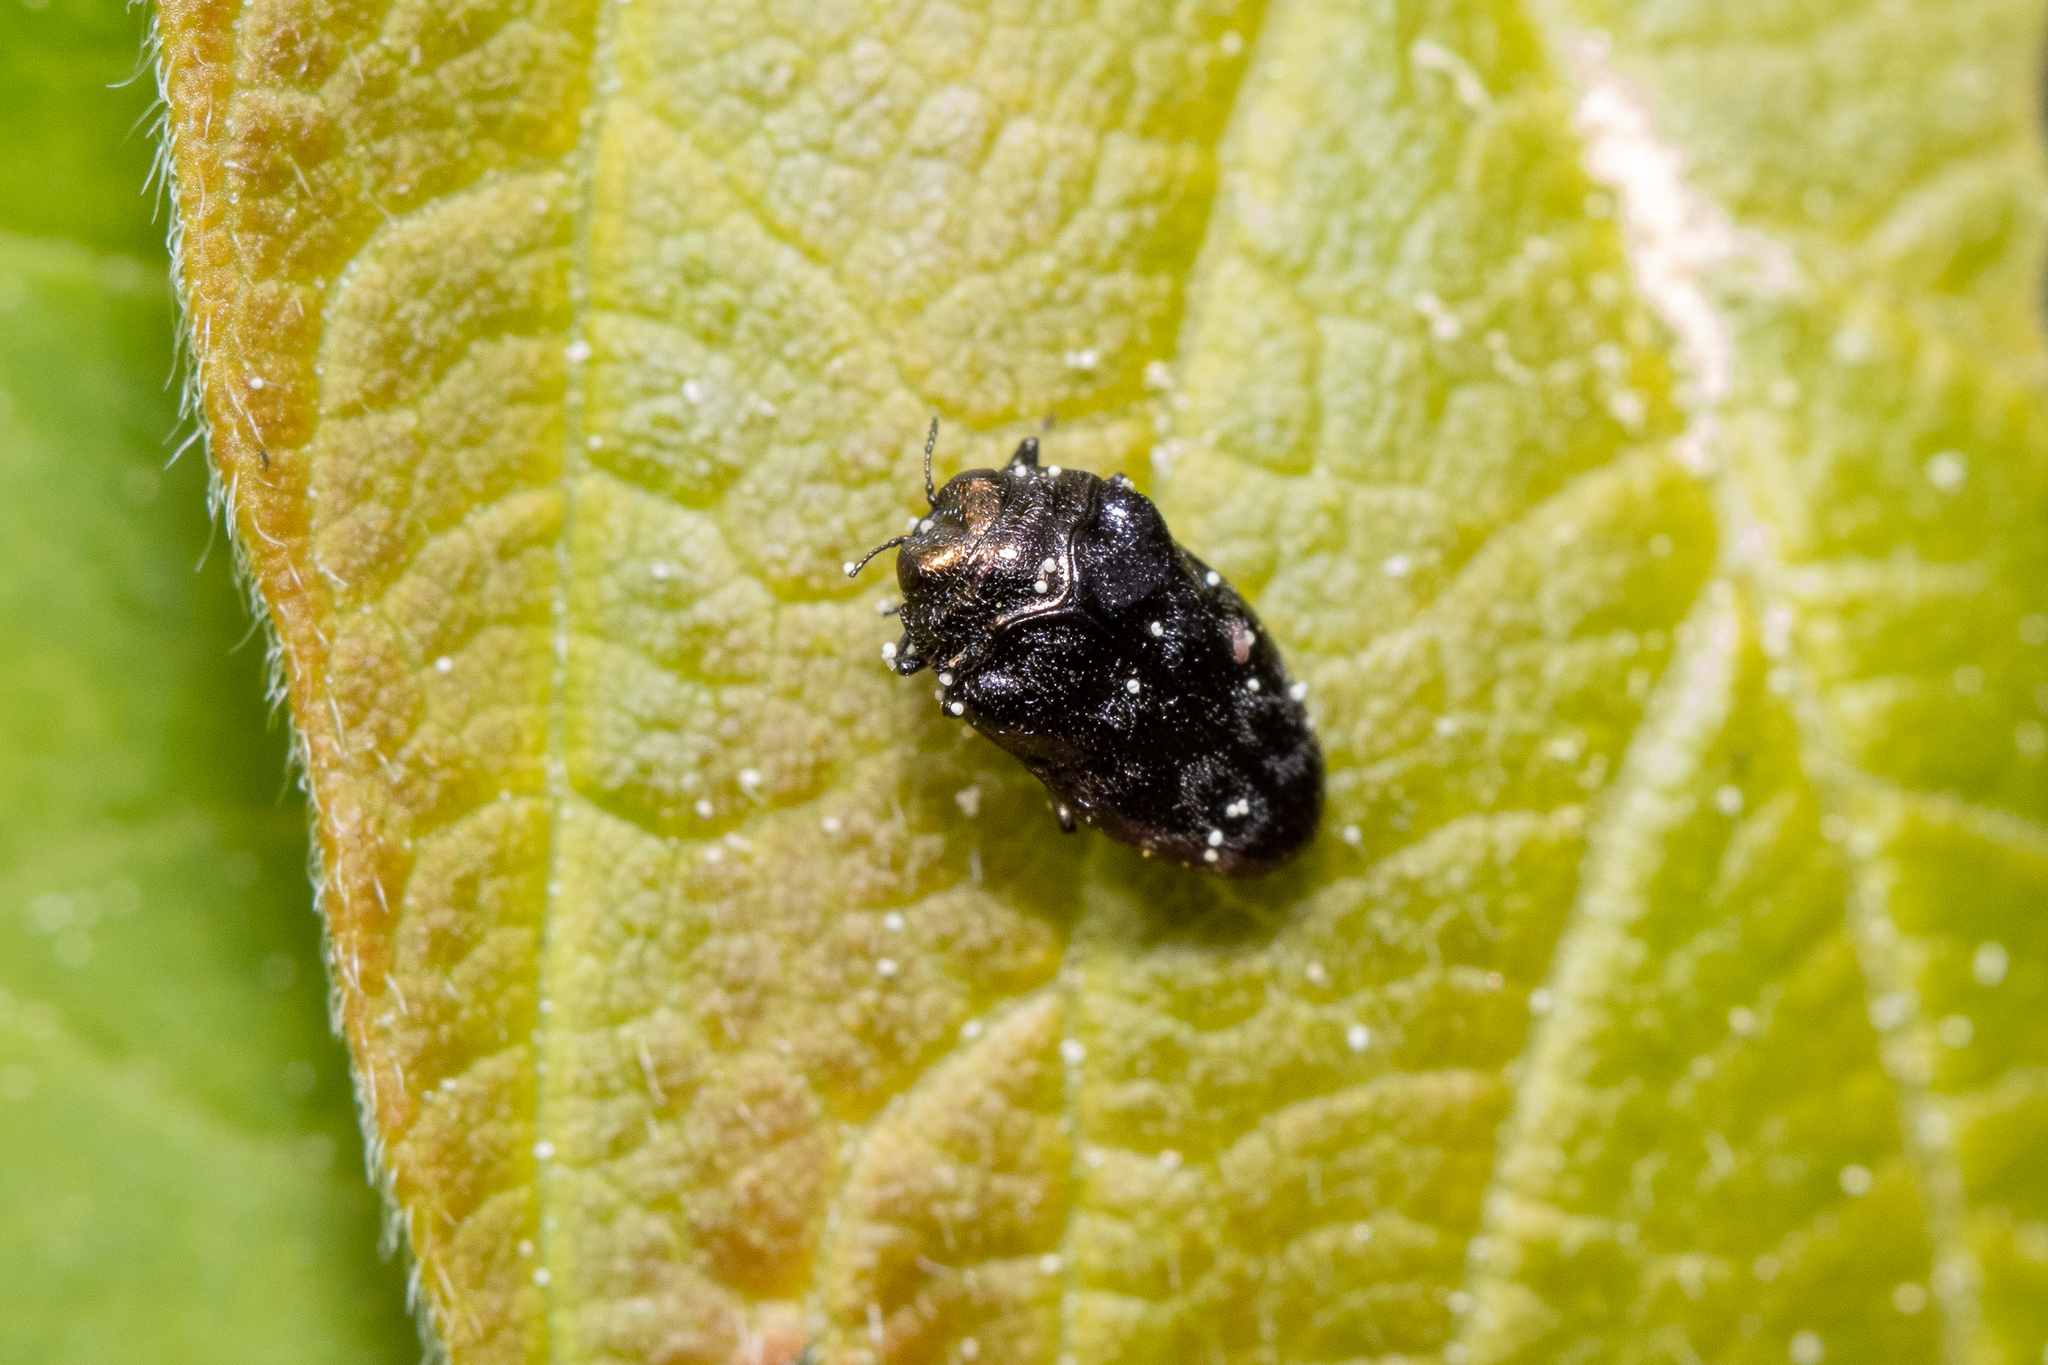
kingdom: Animalia
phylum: Arthropoda
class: Insecta
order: Coleoptera
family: Buprestidae
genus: Trachys
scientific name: Trachys minutus
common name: Metallic wood-boring beetle
